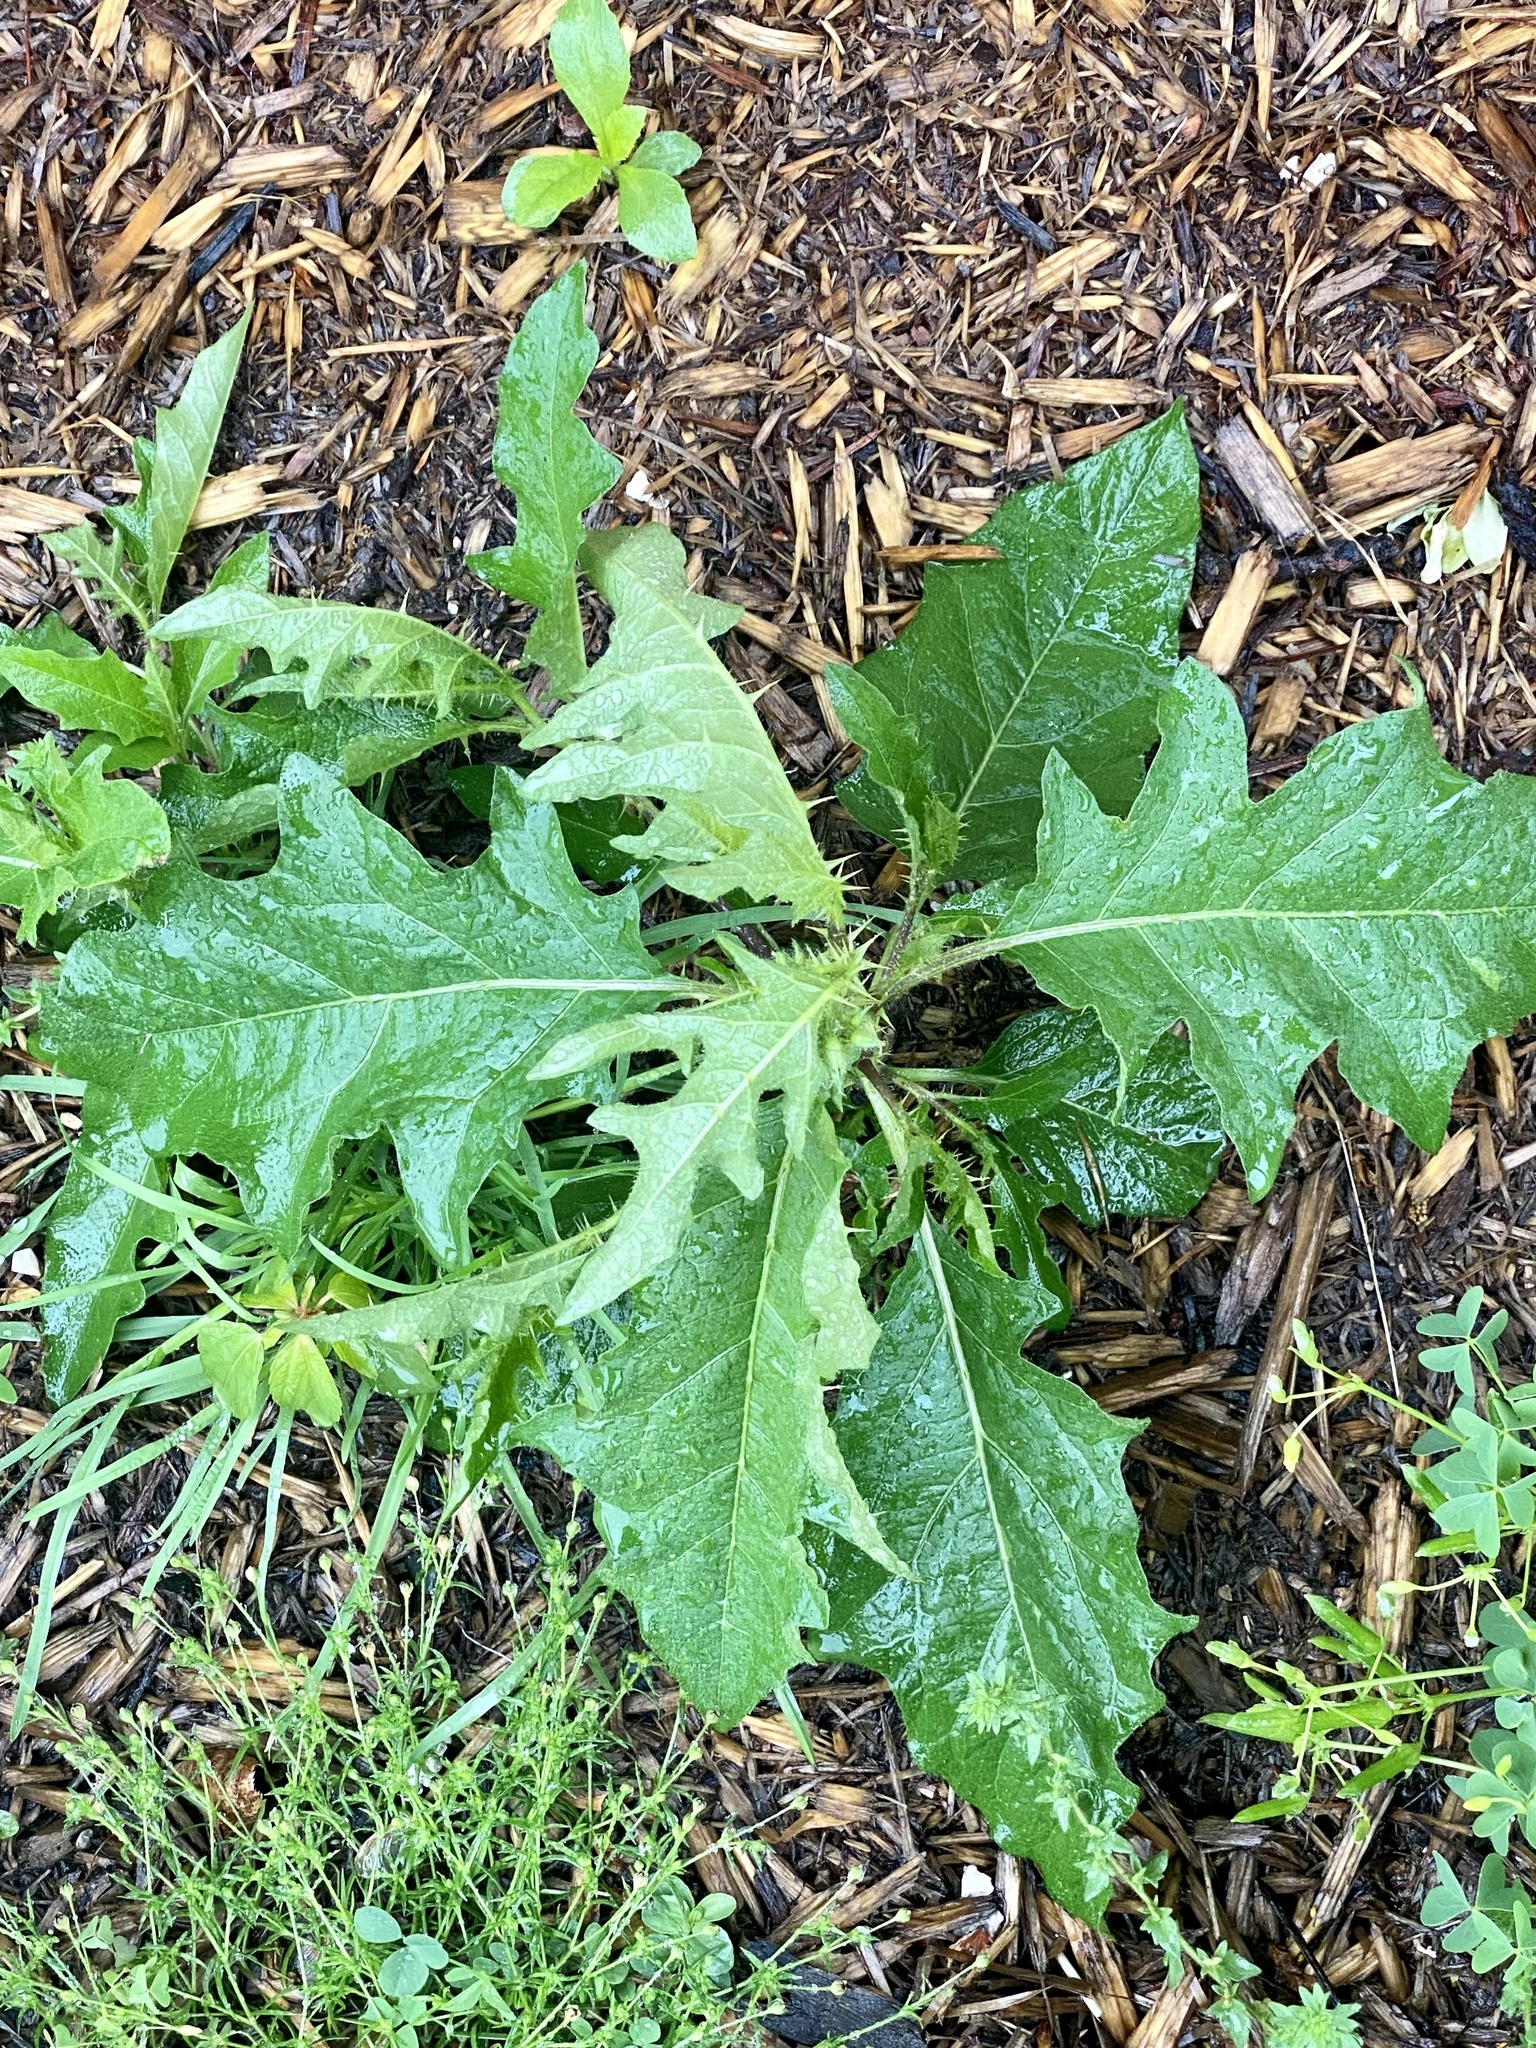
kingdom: Plantae
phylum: Tracheophyta
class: Magnoliopsida
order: Solanales
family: Solanaceae
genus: Solanum
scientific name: Solanum carolinense
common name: Horse-nettle
